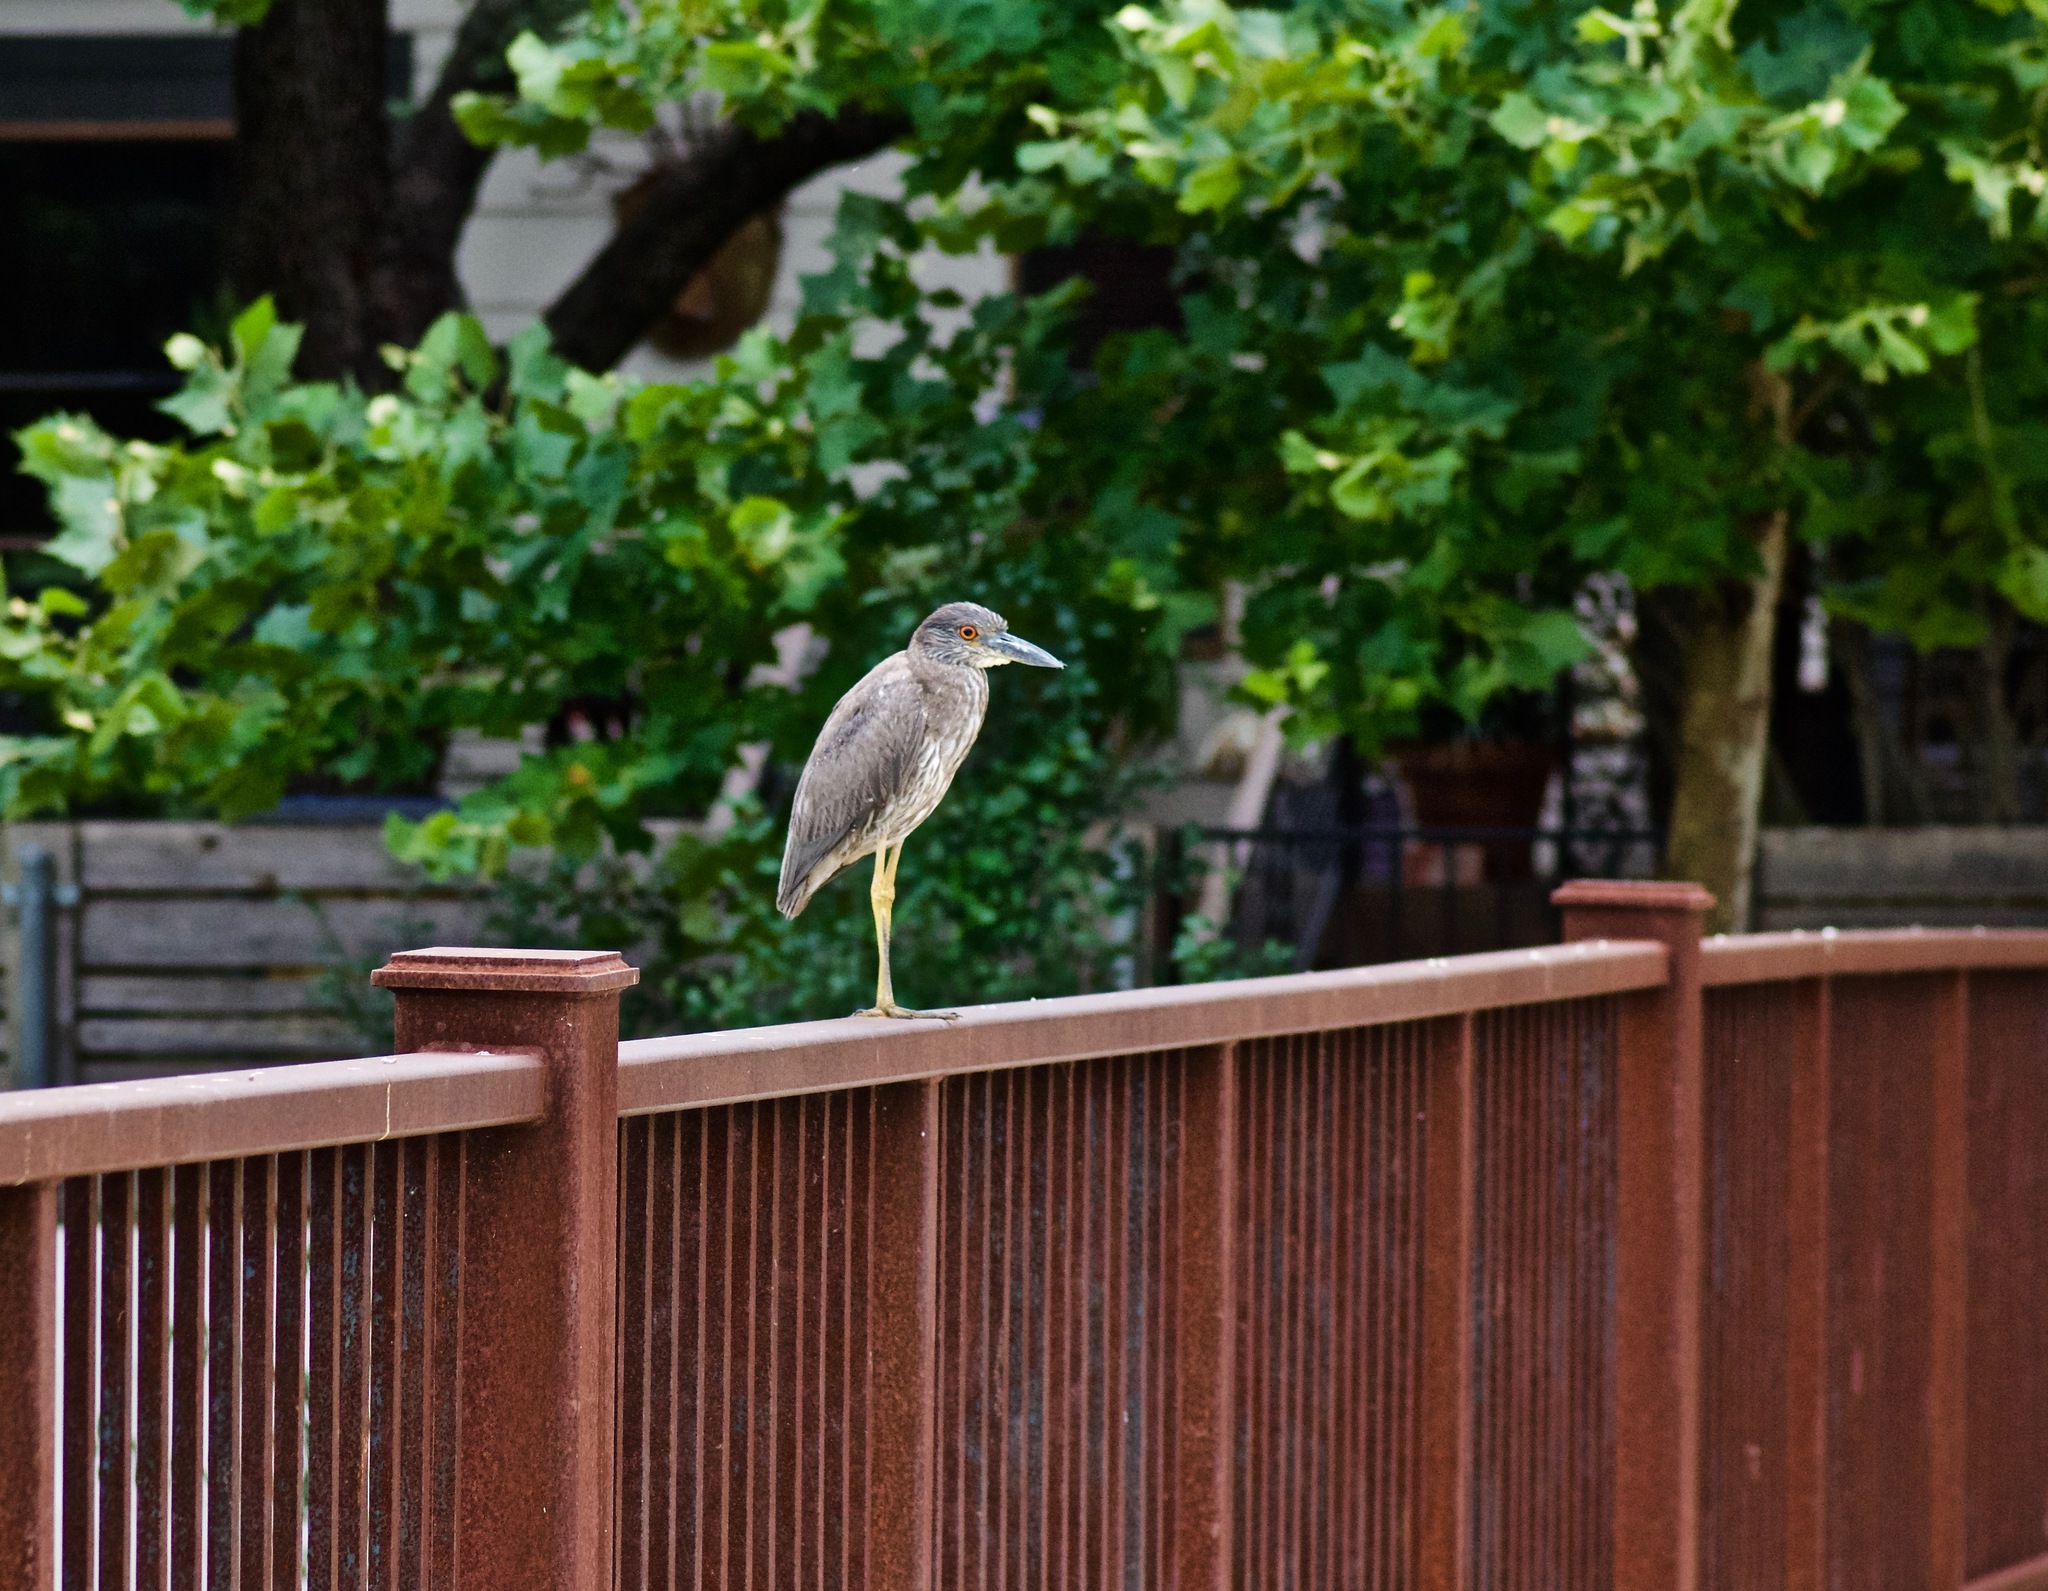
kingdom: Animalia
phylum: Chordata
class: Aves
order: Pelecaniformes
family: Ardeidae
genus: Nyctanassa
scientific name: Nyctanassa violacea
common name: Yellow-crowned night heron
